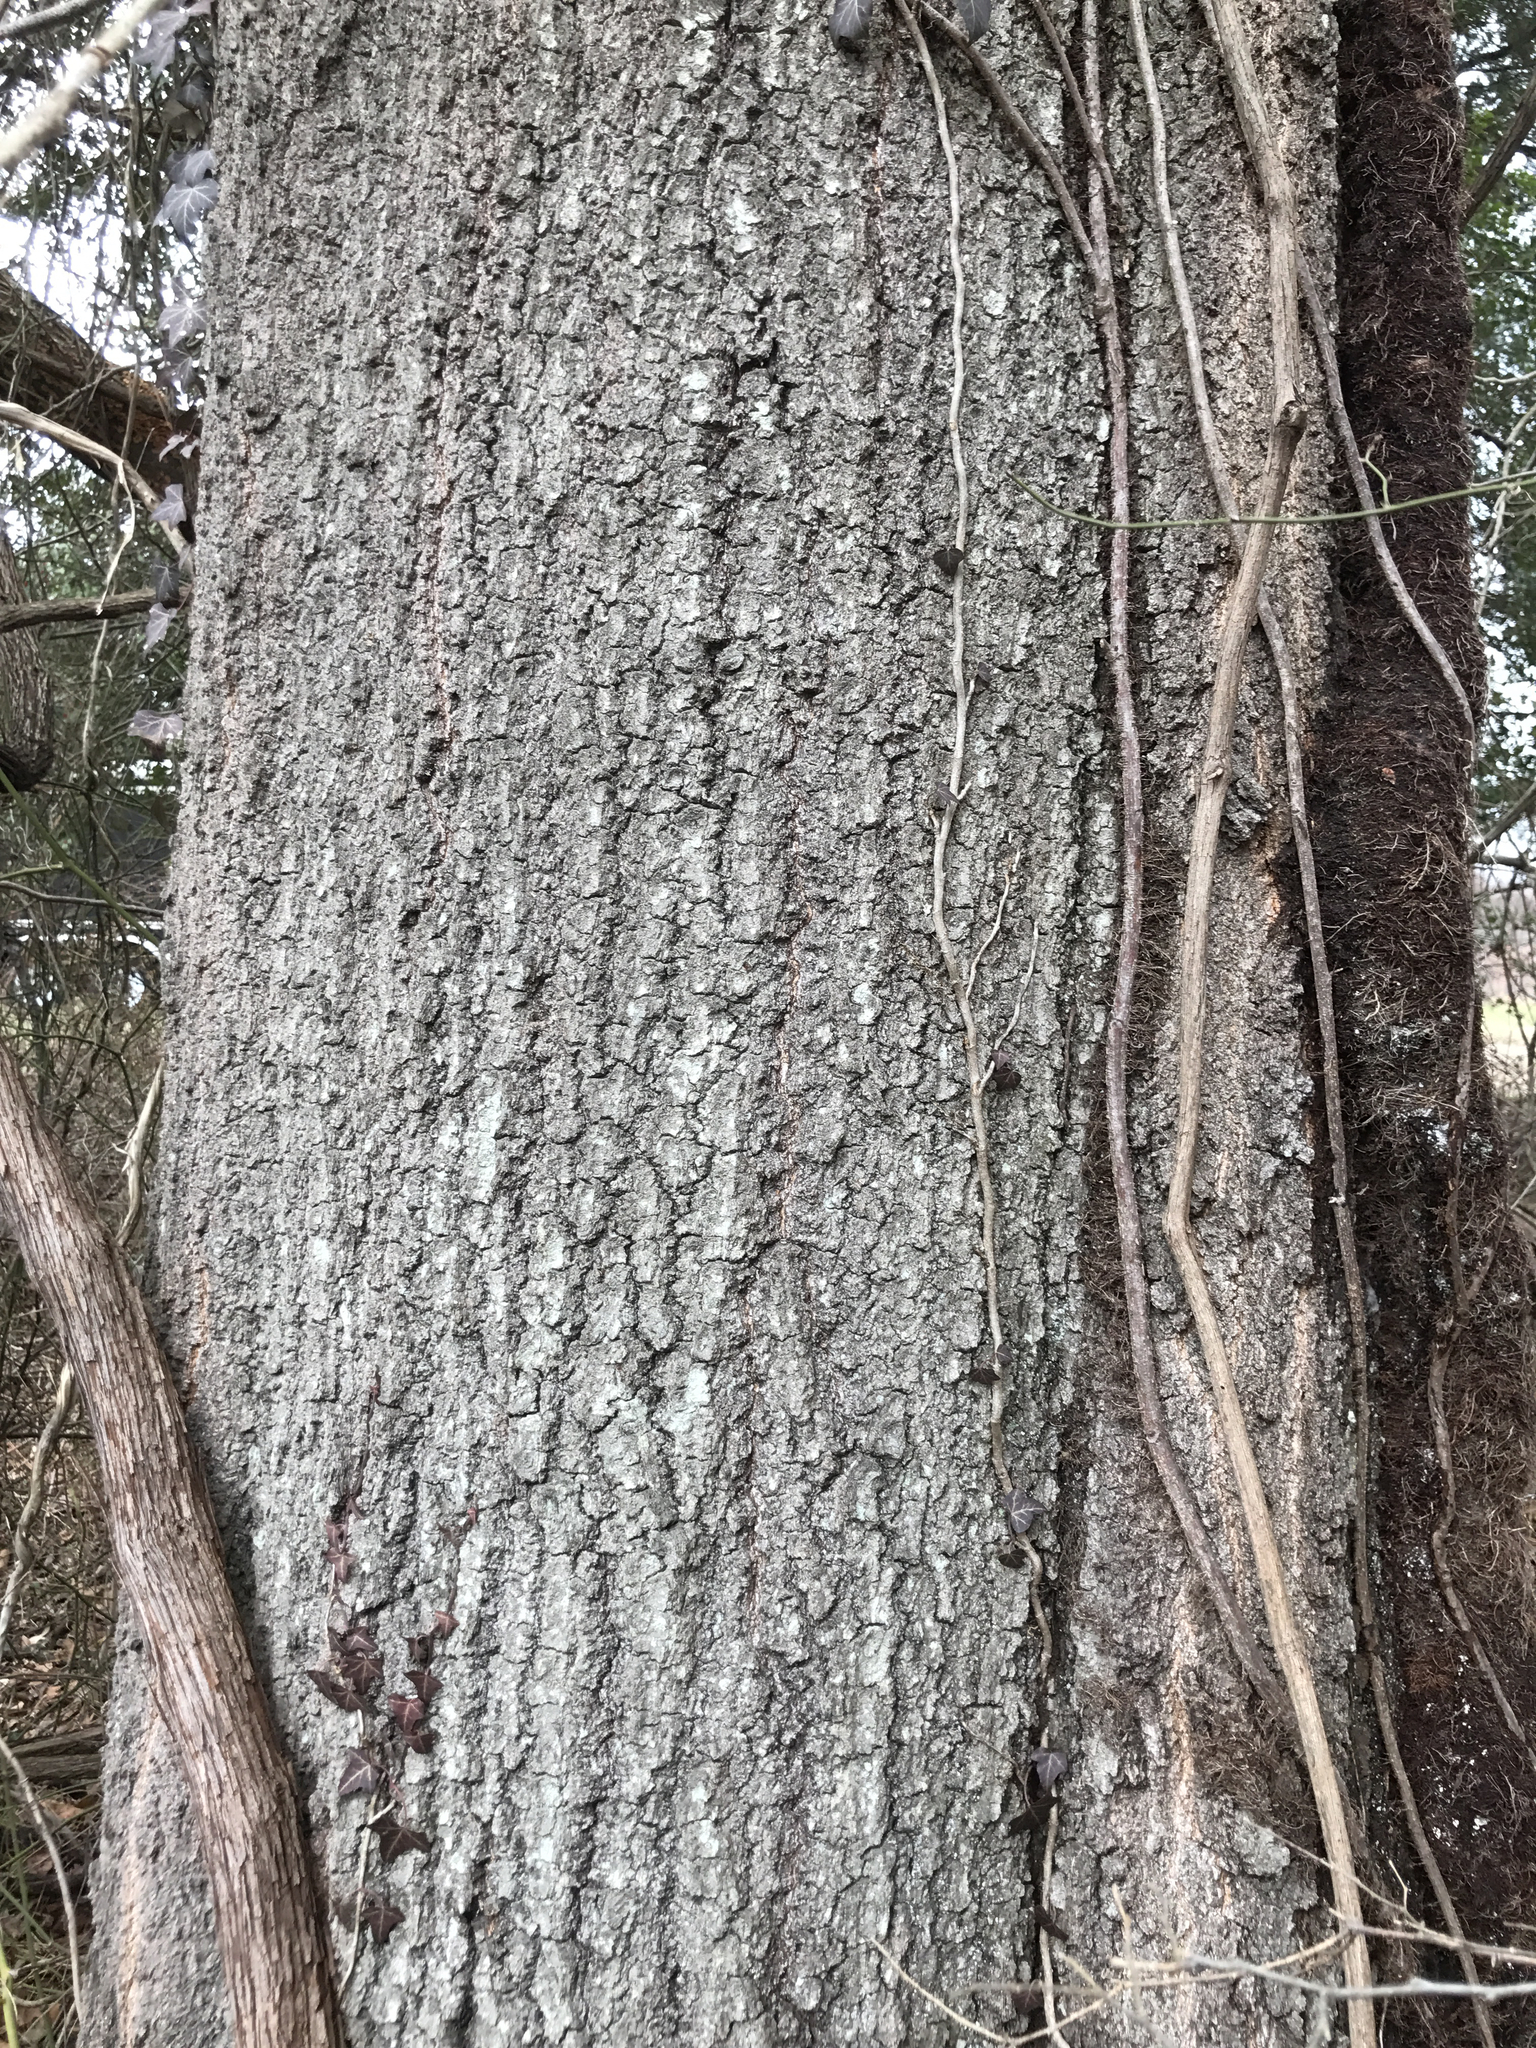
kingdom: Plantae
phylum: Tracheophyta
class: Magnoliopsida
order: Fagales
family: Fagaceae
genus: Quercus
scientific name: Quercus nigra
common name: Water oak
